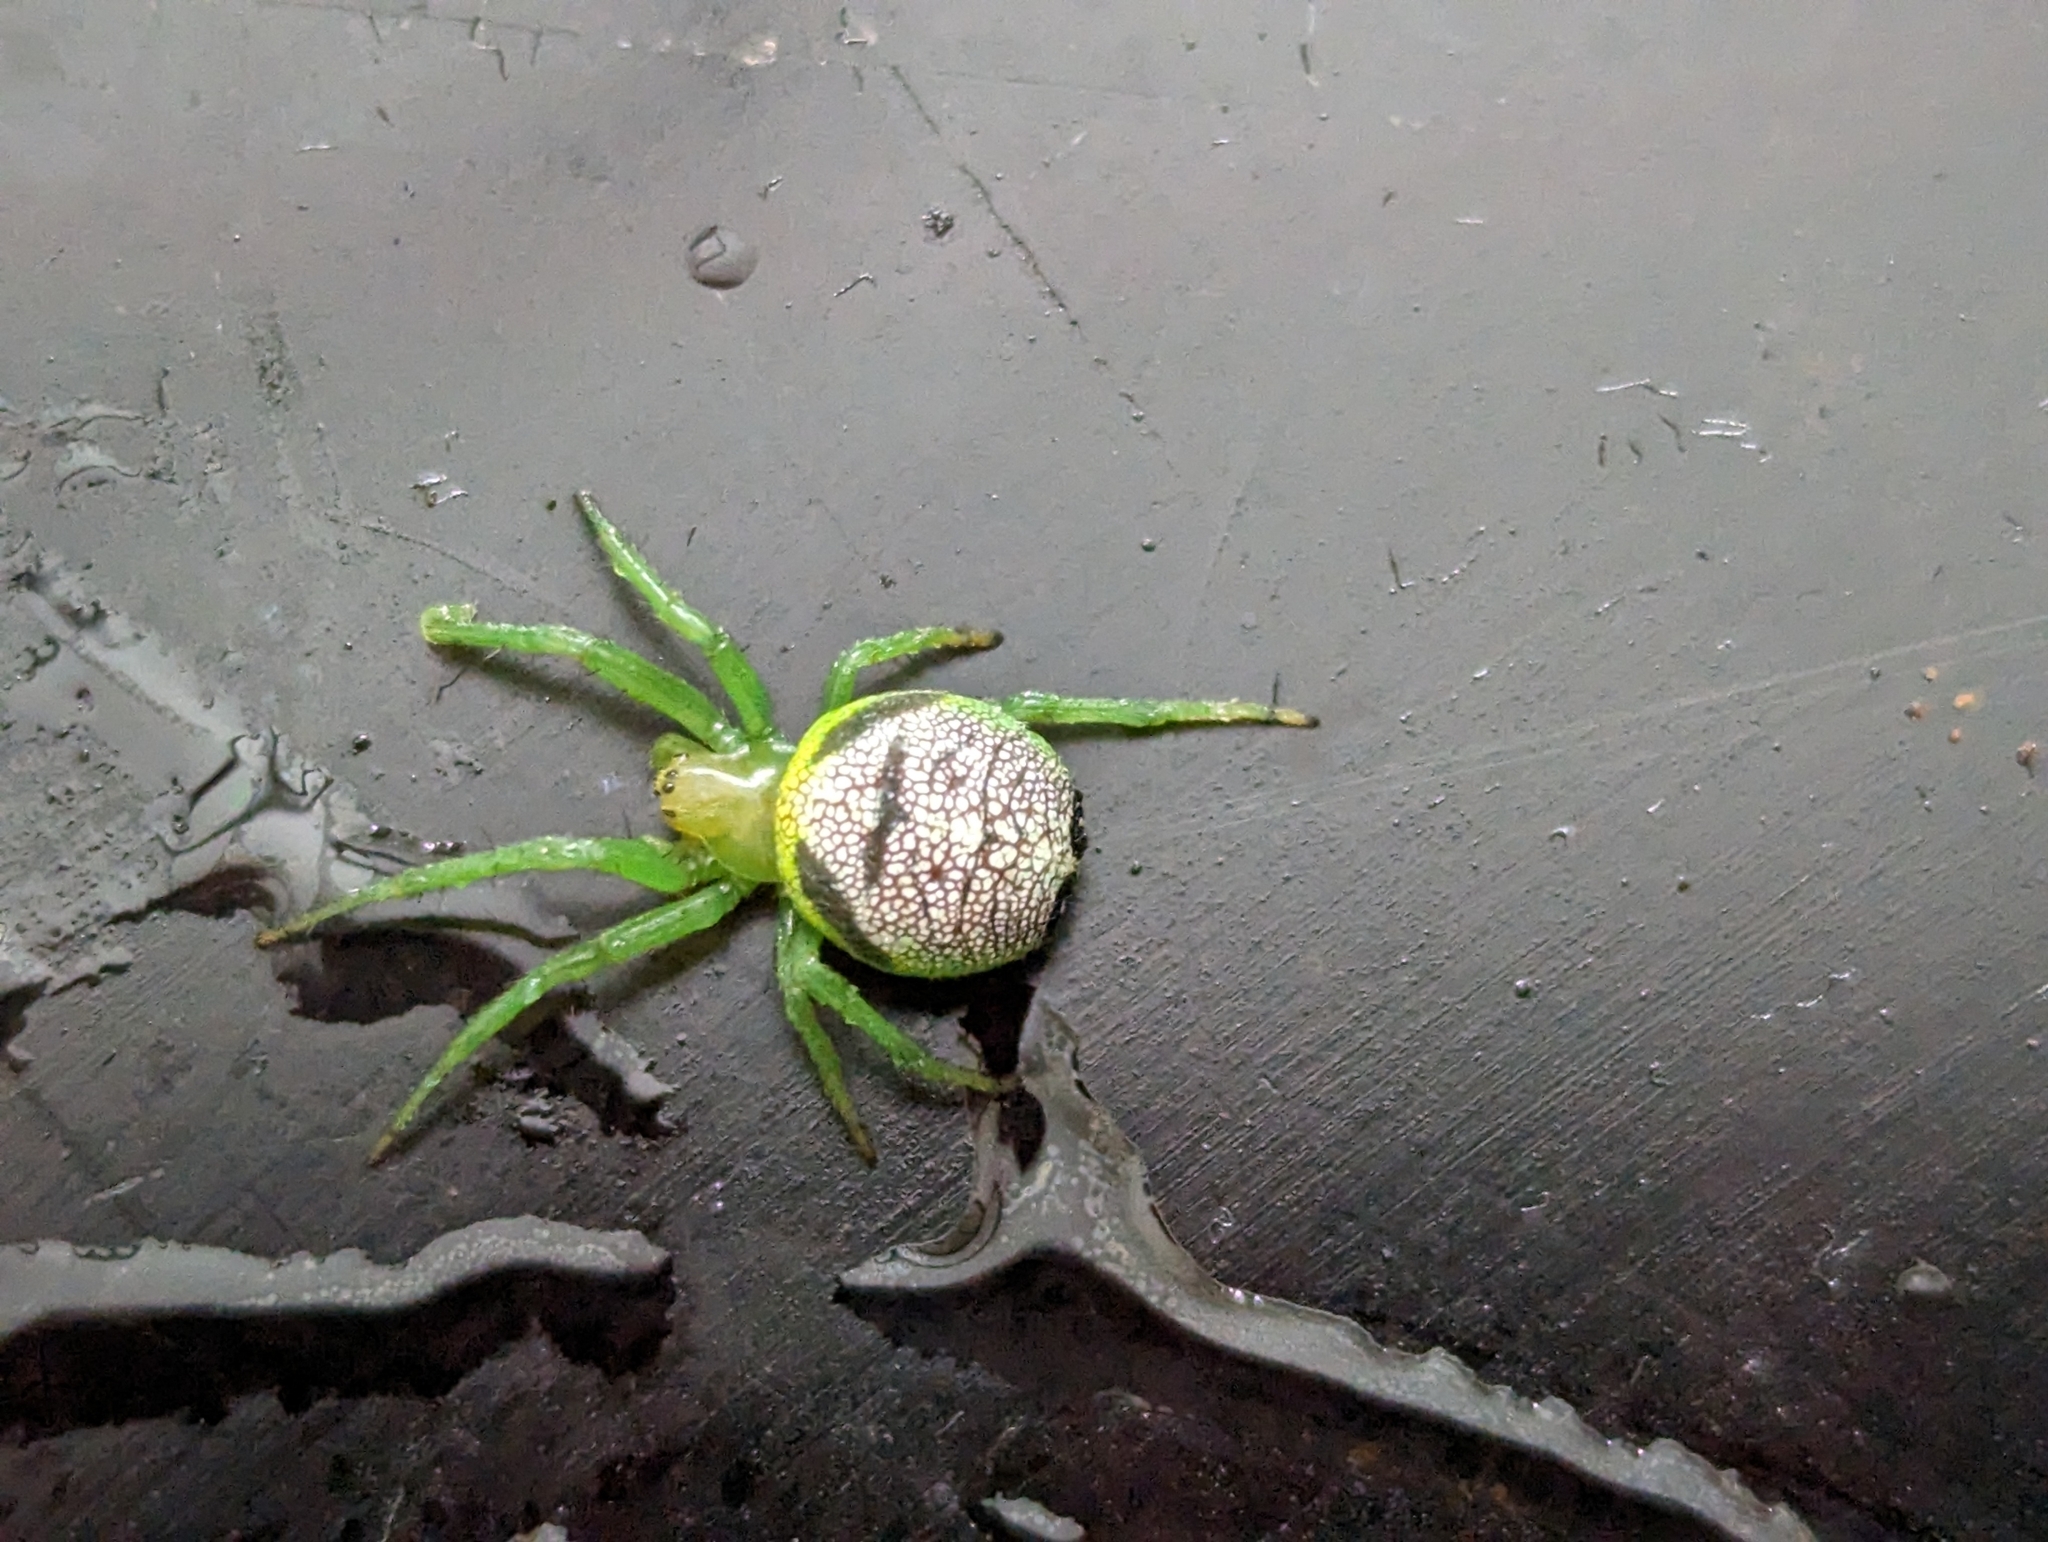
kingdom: Animalia
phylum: Arthropoda
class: Arachnida
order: Araneae
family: Araneidae
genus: Bijoaraneus
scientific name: Bijoaraneus praesignis
